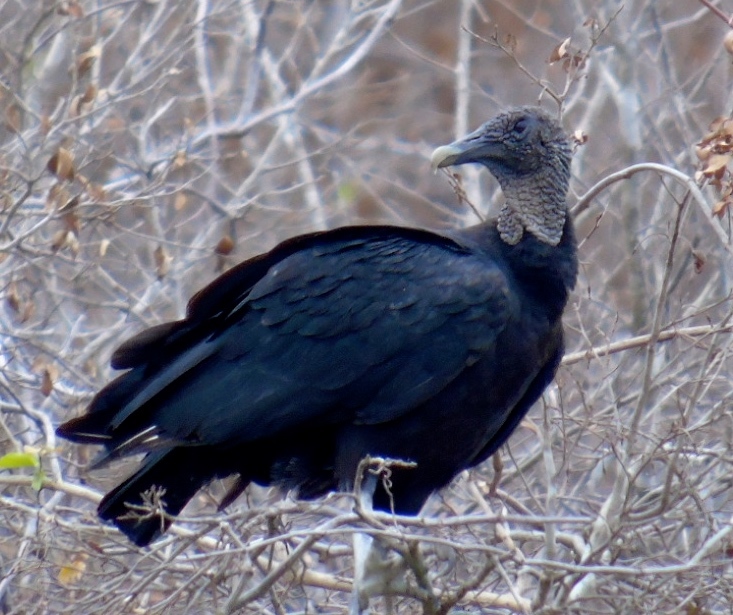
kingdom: Animalia
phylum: Chordata
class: Aves
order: Accipitriformes
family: Cathartidae
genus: Coragyps
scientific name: Coragyps atratus
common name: Black vulture
